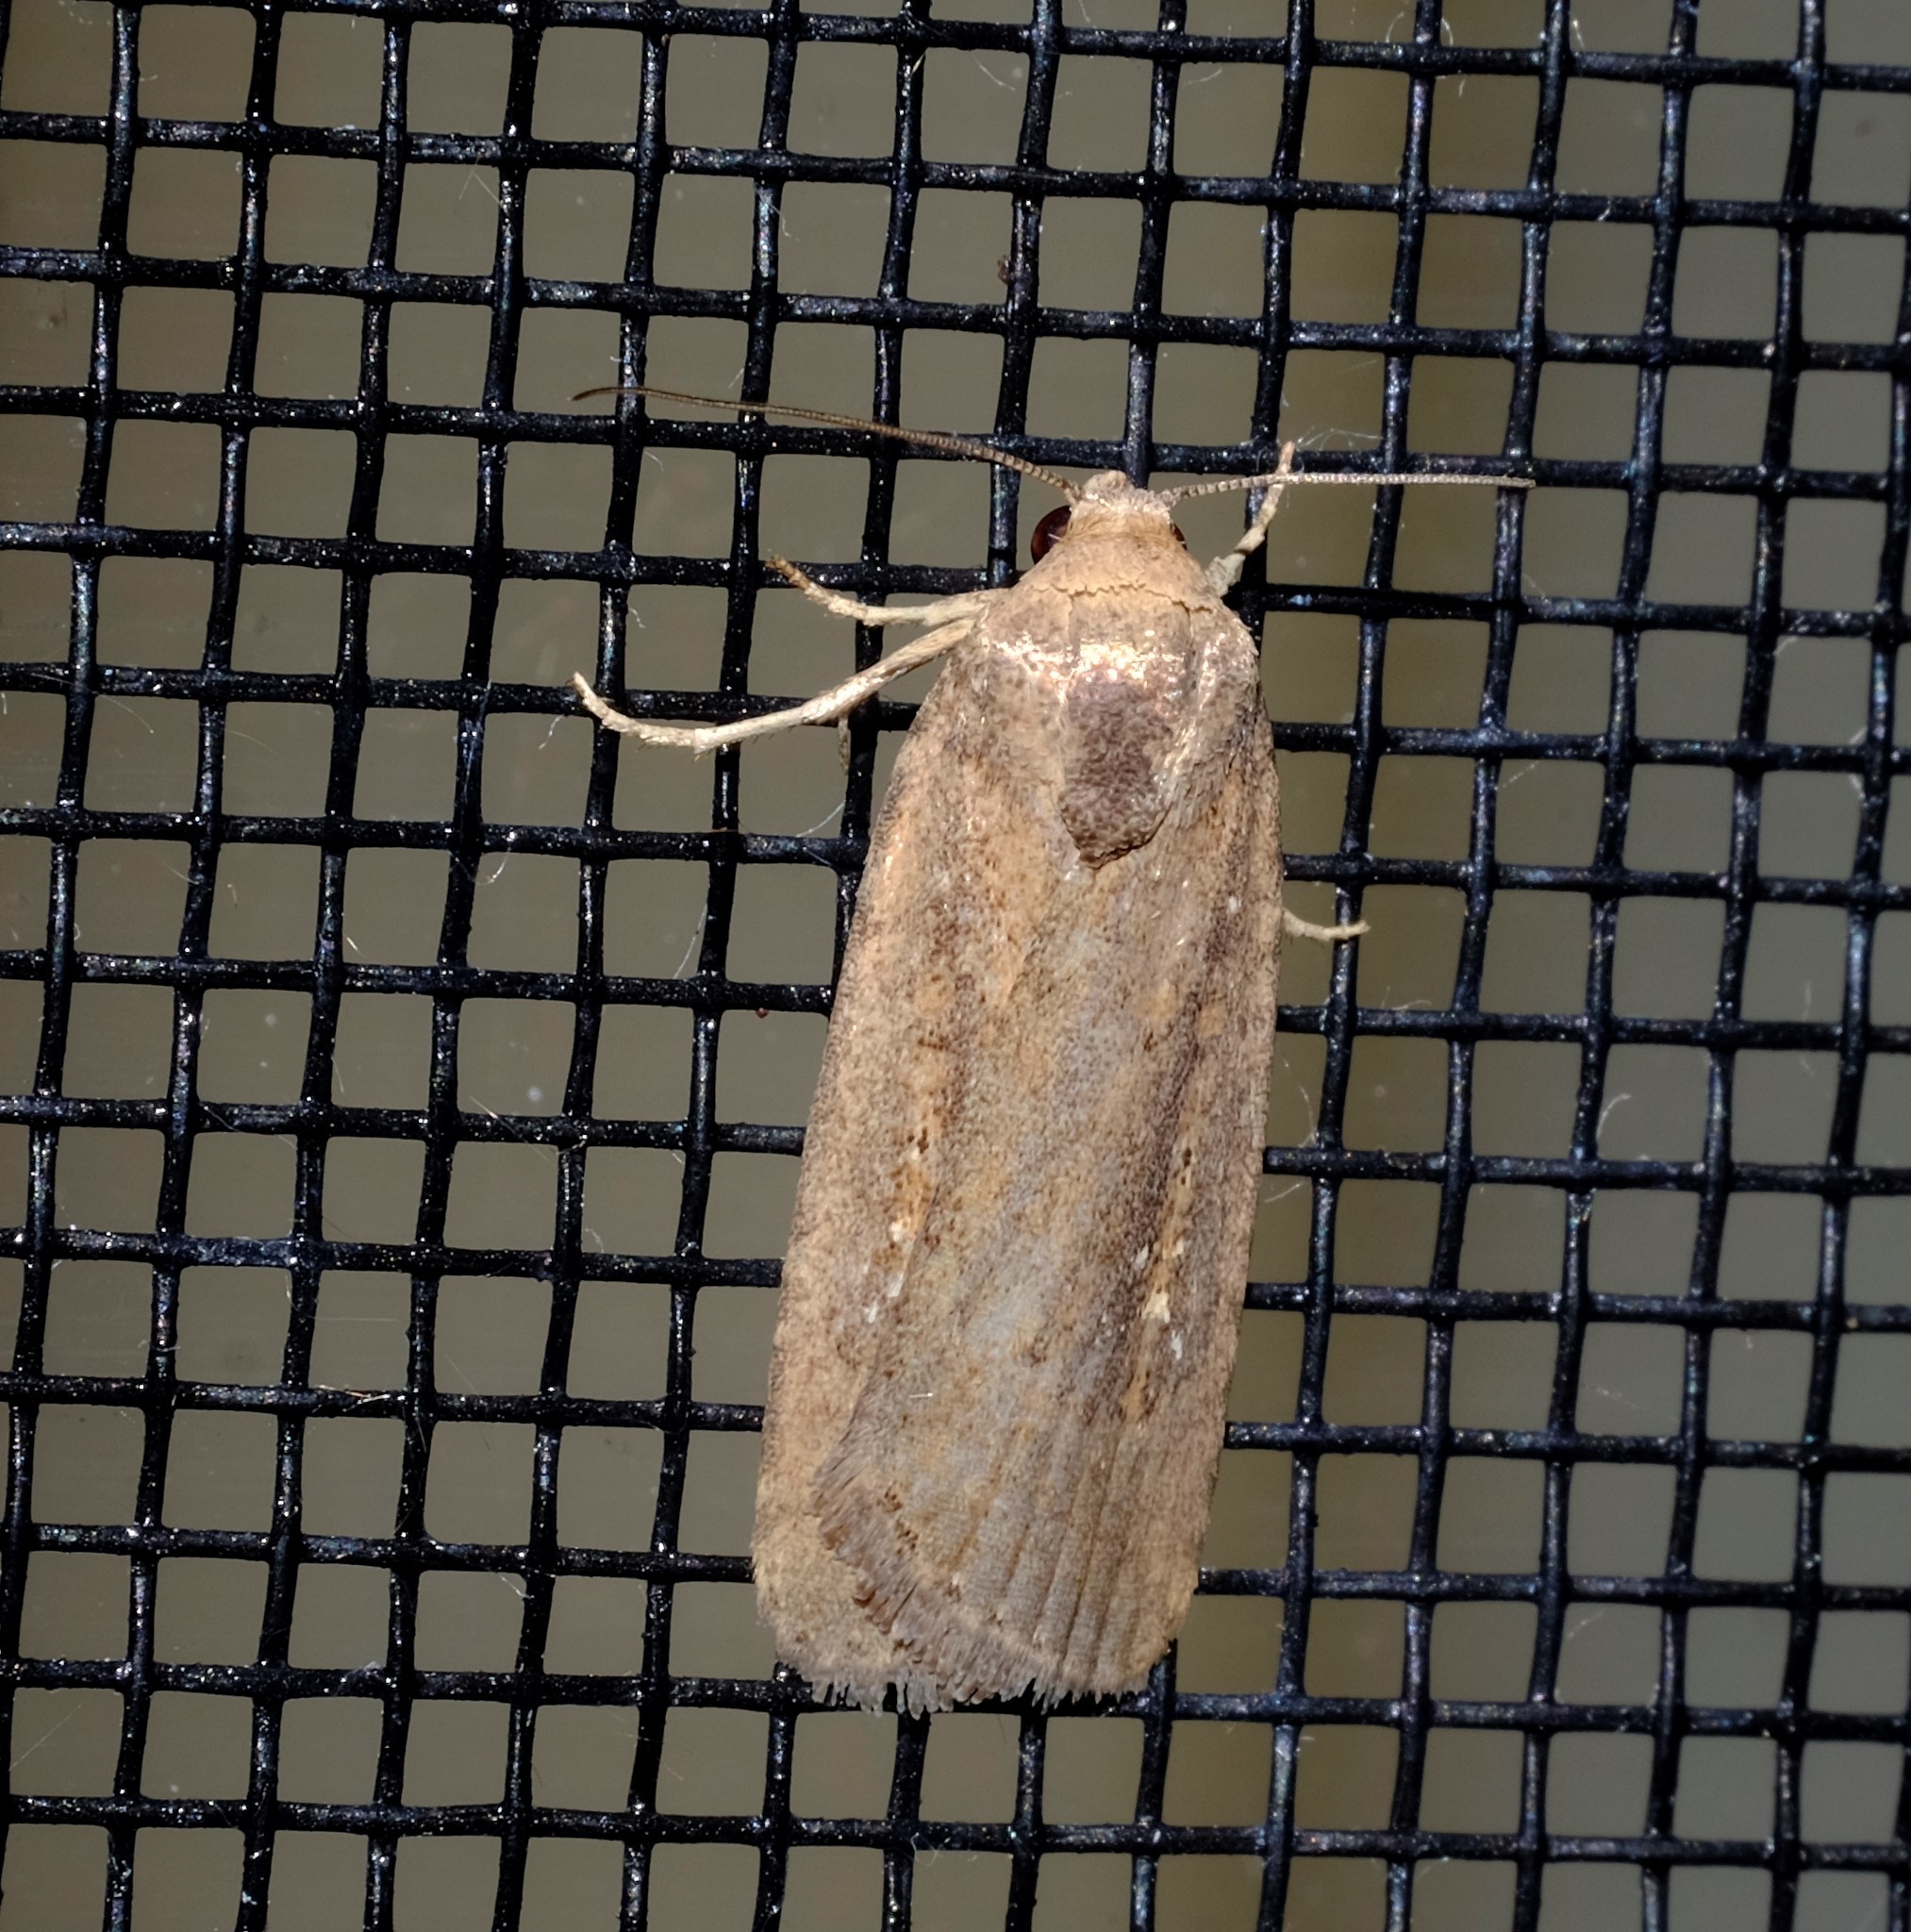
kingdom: Animalia
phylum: Arthropoda
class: Insecta
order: Lepidoptera
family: Noctuidae
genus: Athetis
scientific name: Athetis tenuis
